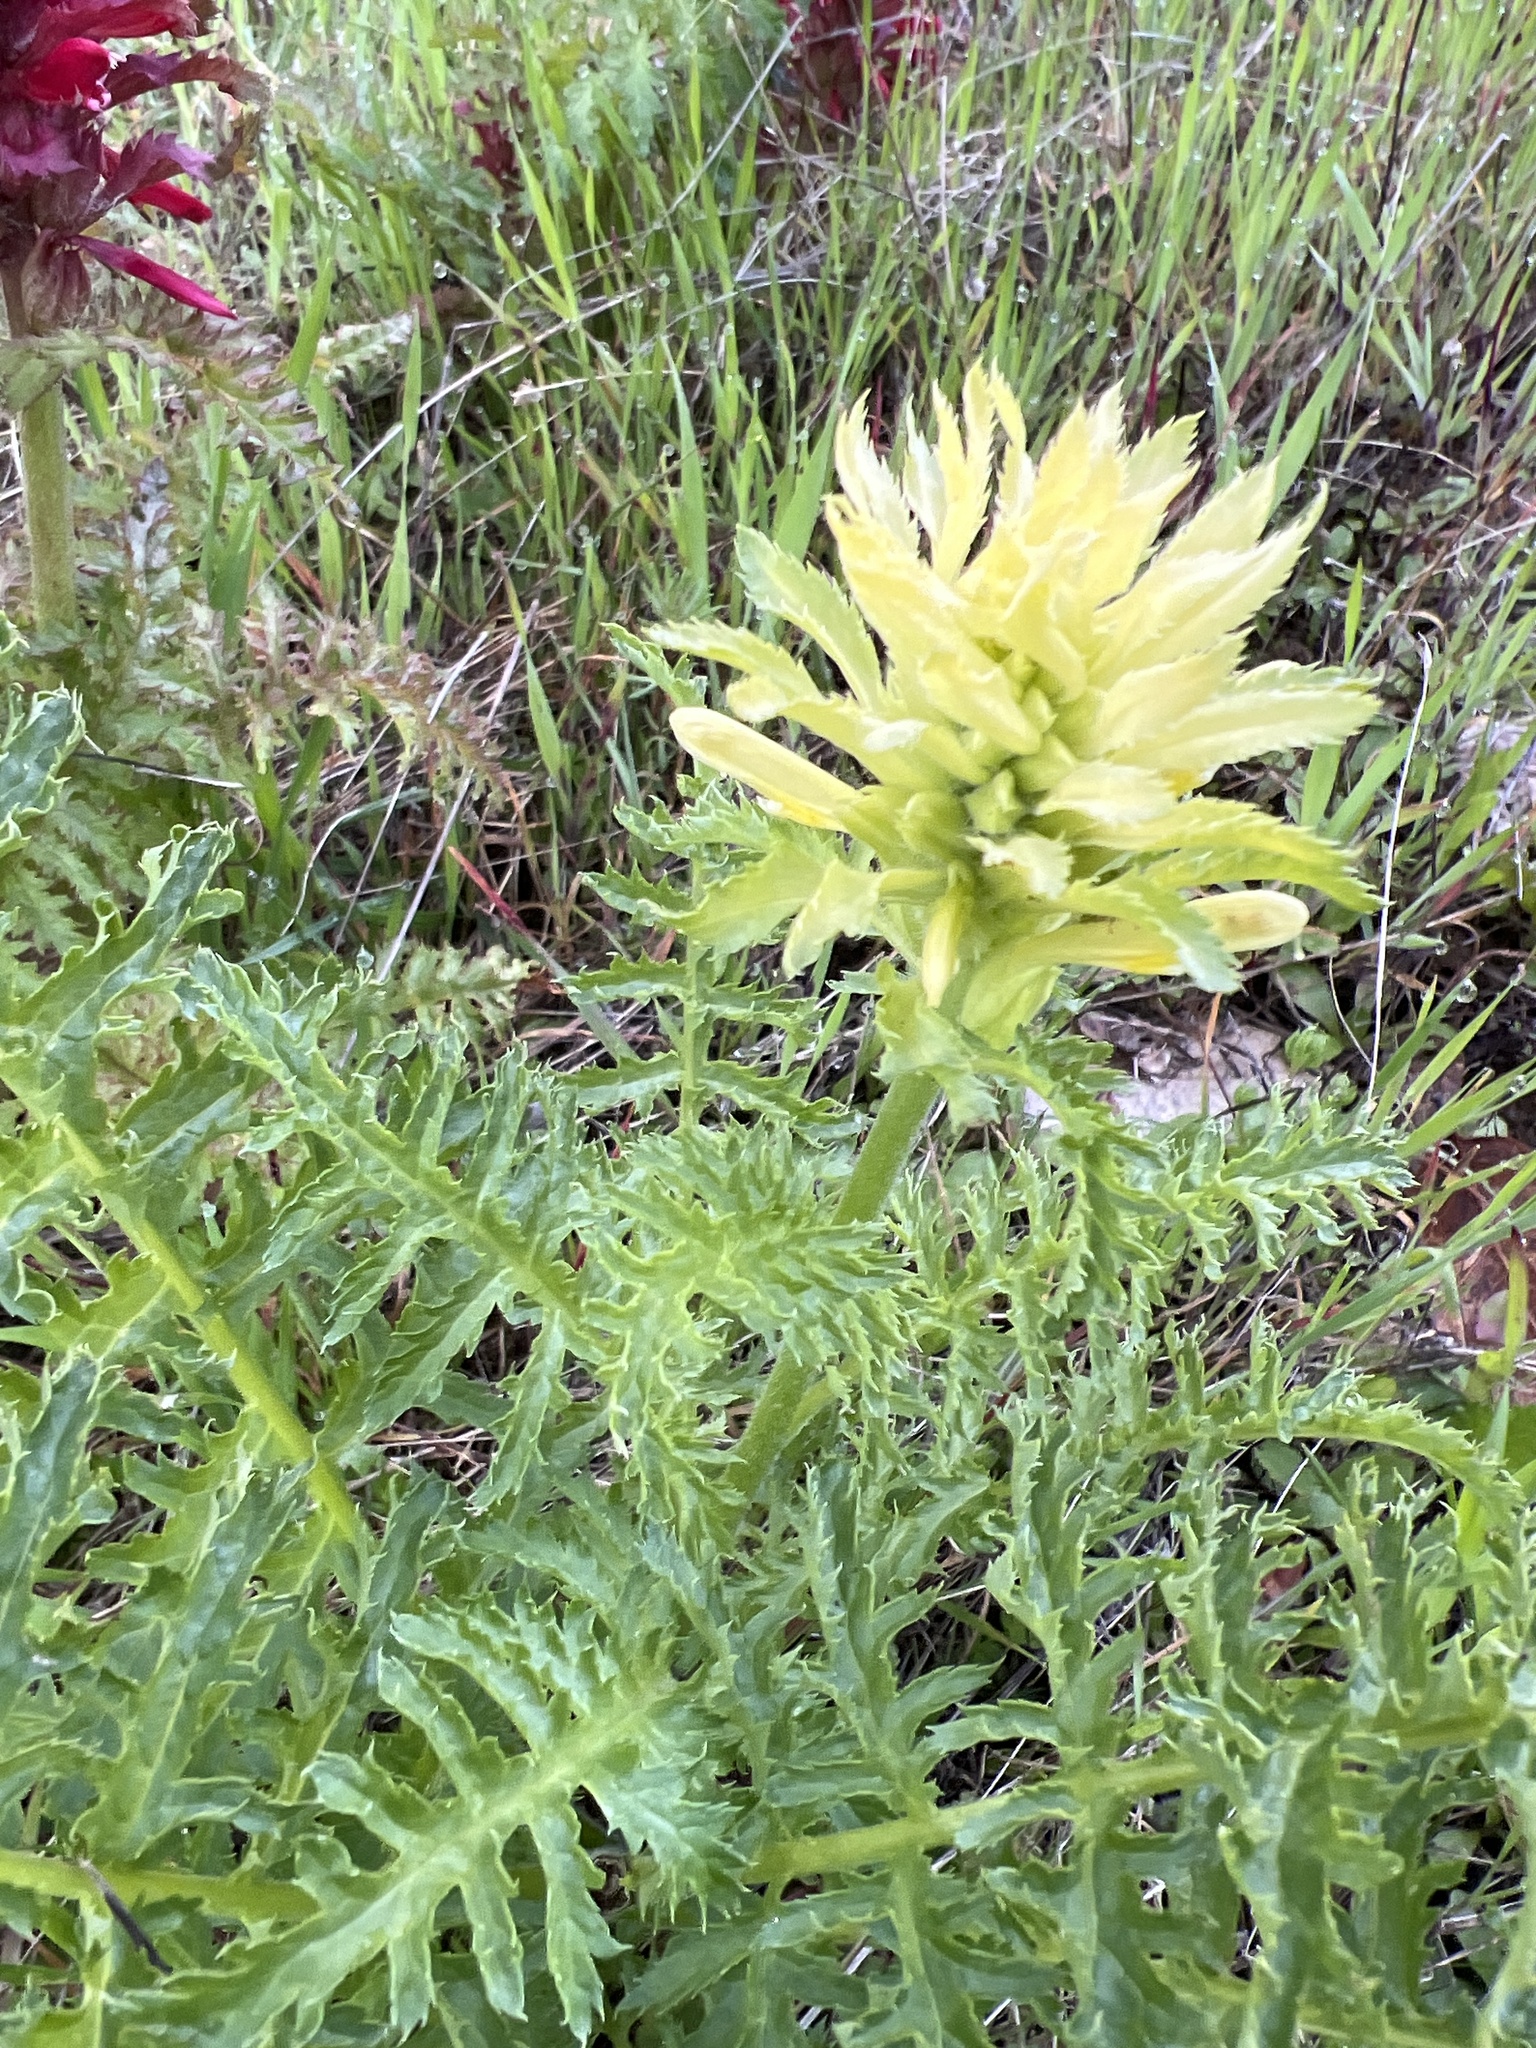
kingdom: Plantae
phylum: Tracheophyta
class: Magnoliopsida
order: Lamiales
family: Orobanchaceae
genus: Pedicularis
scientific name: Pedicularis densiflora
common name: Indian warrior
